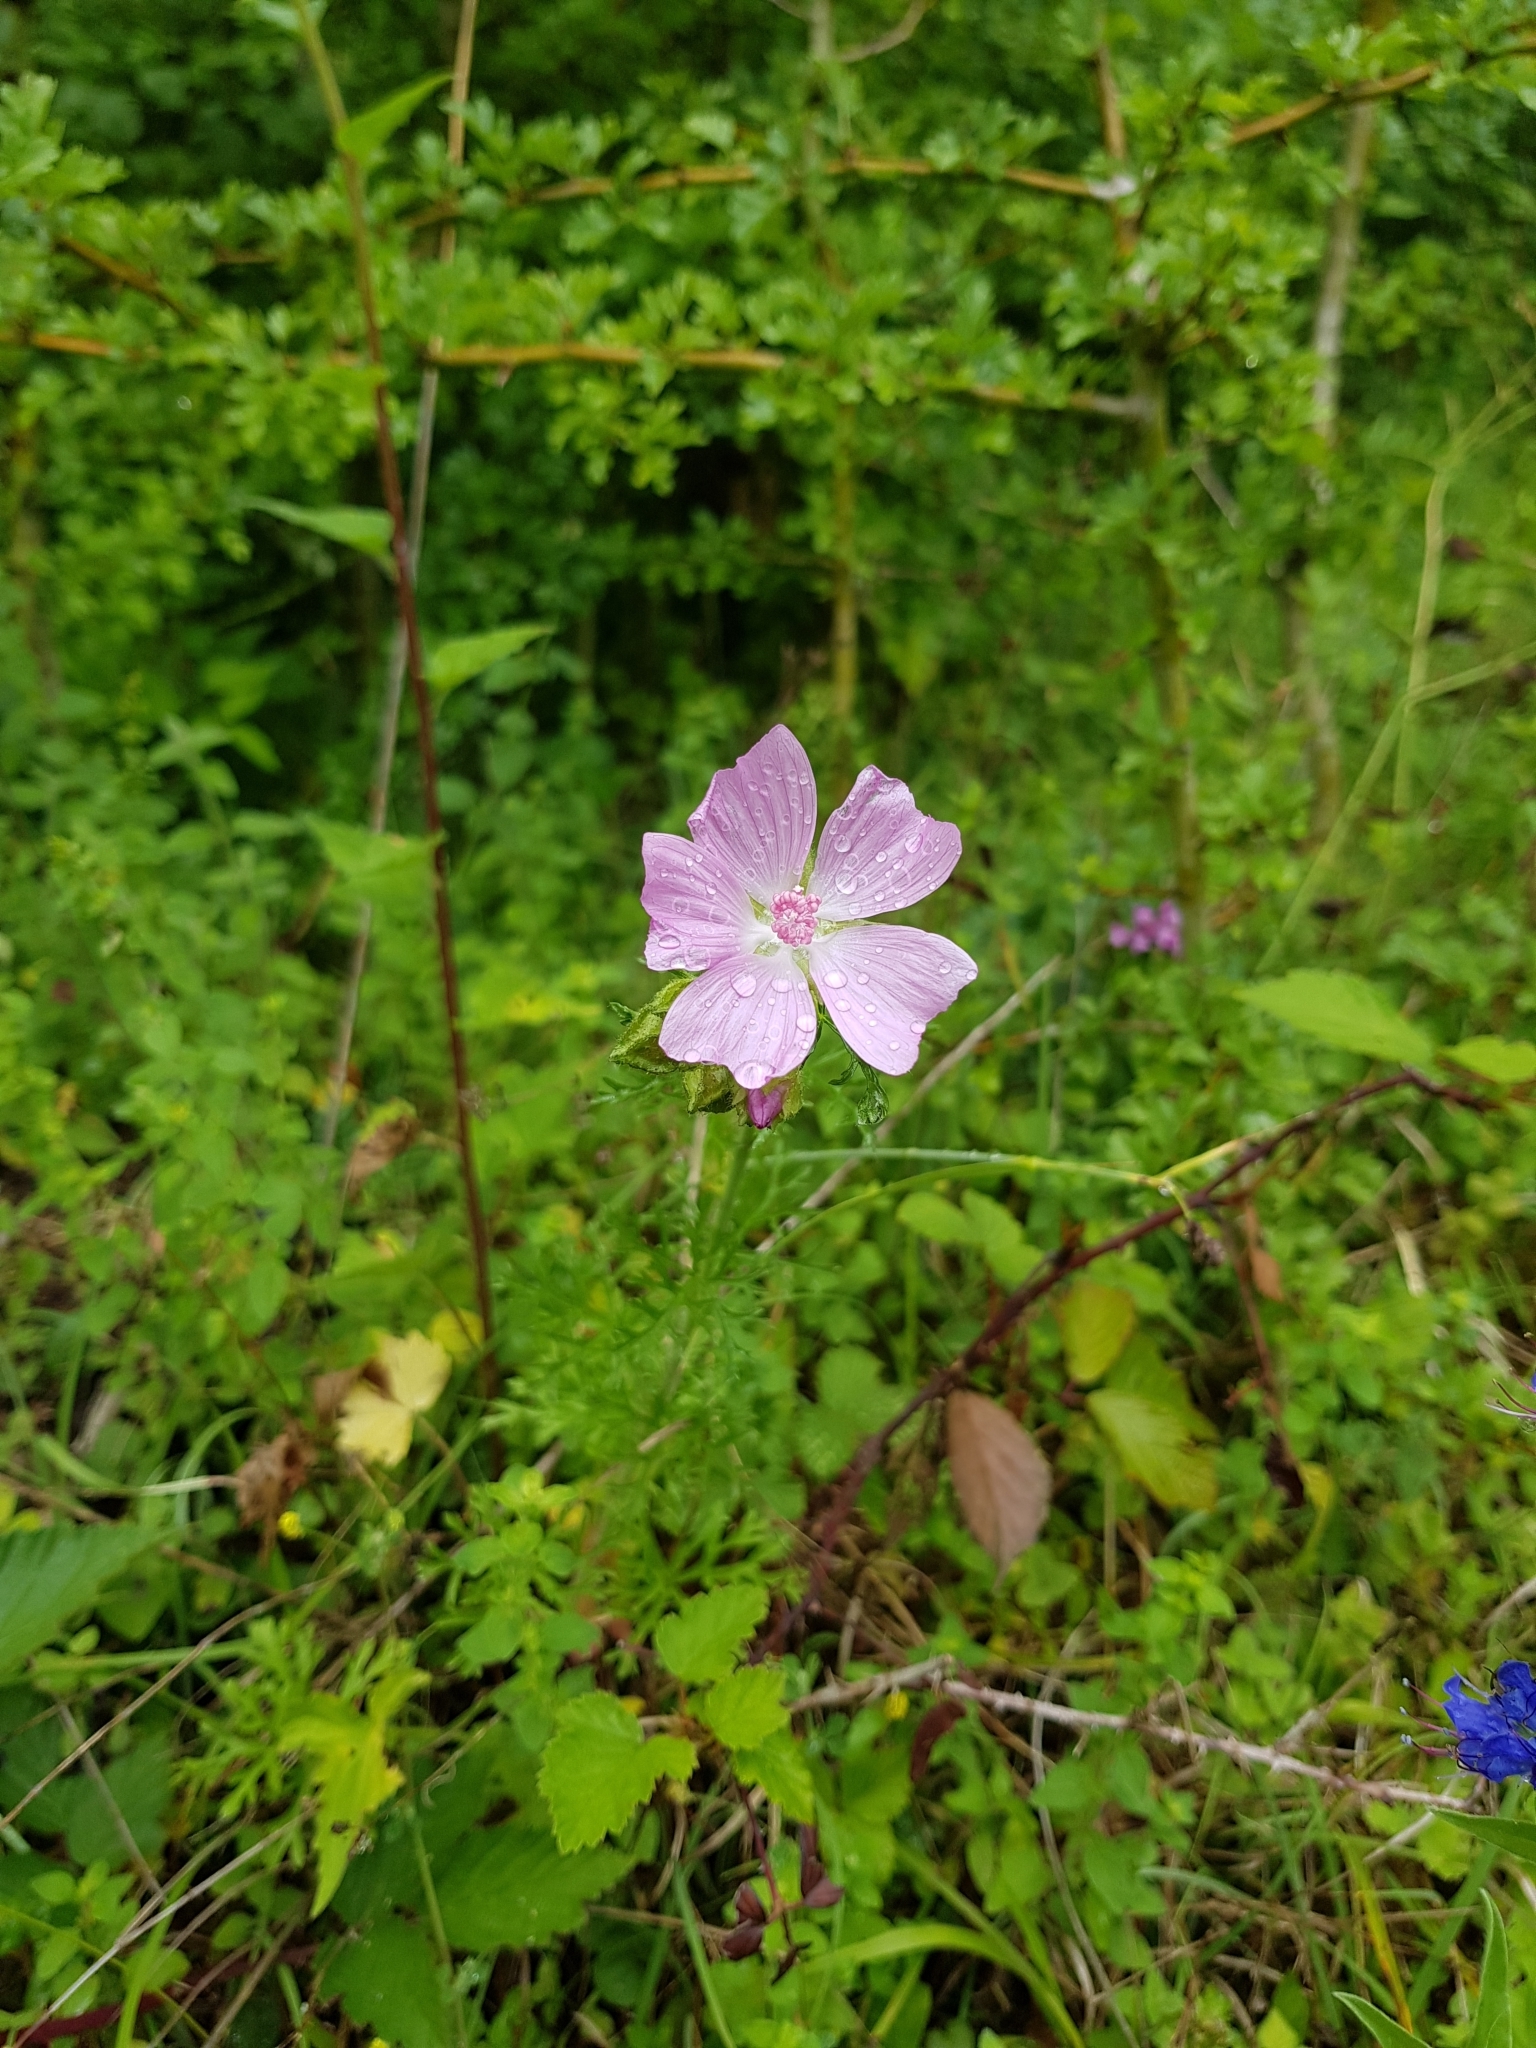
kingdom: Plantae
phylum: Tracheophyta
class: Magnoliopsida
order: Malvales
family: Malvaceae
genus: Malva
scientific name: Malva moschata
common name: Musk mallow
